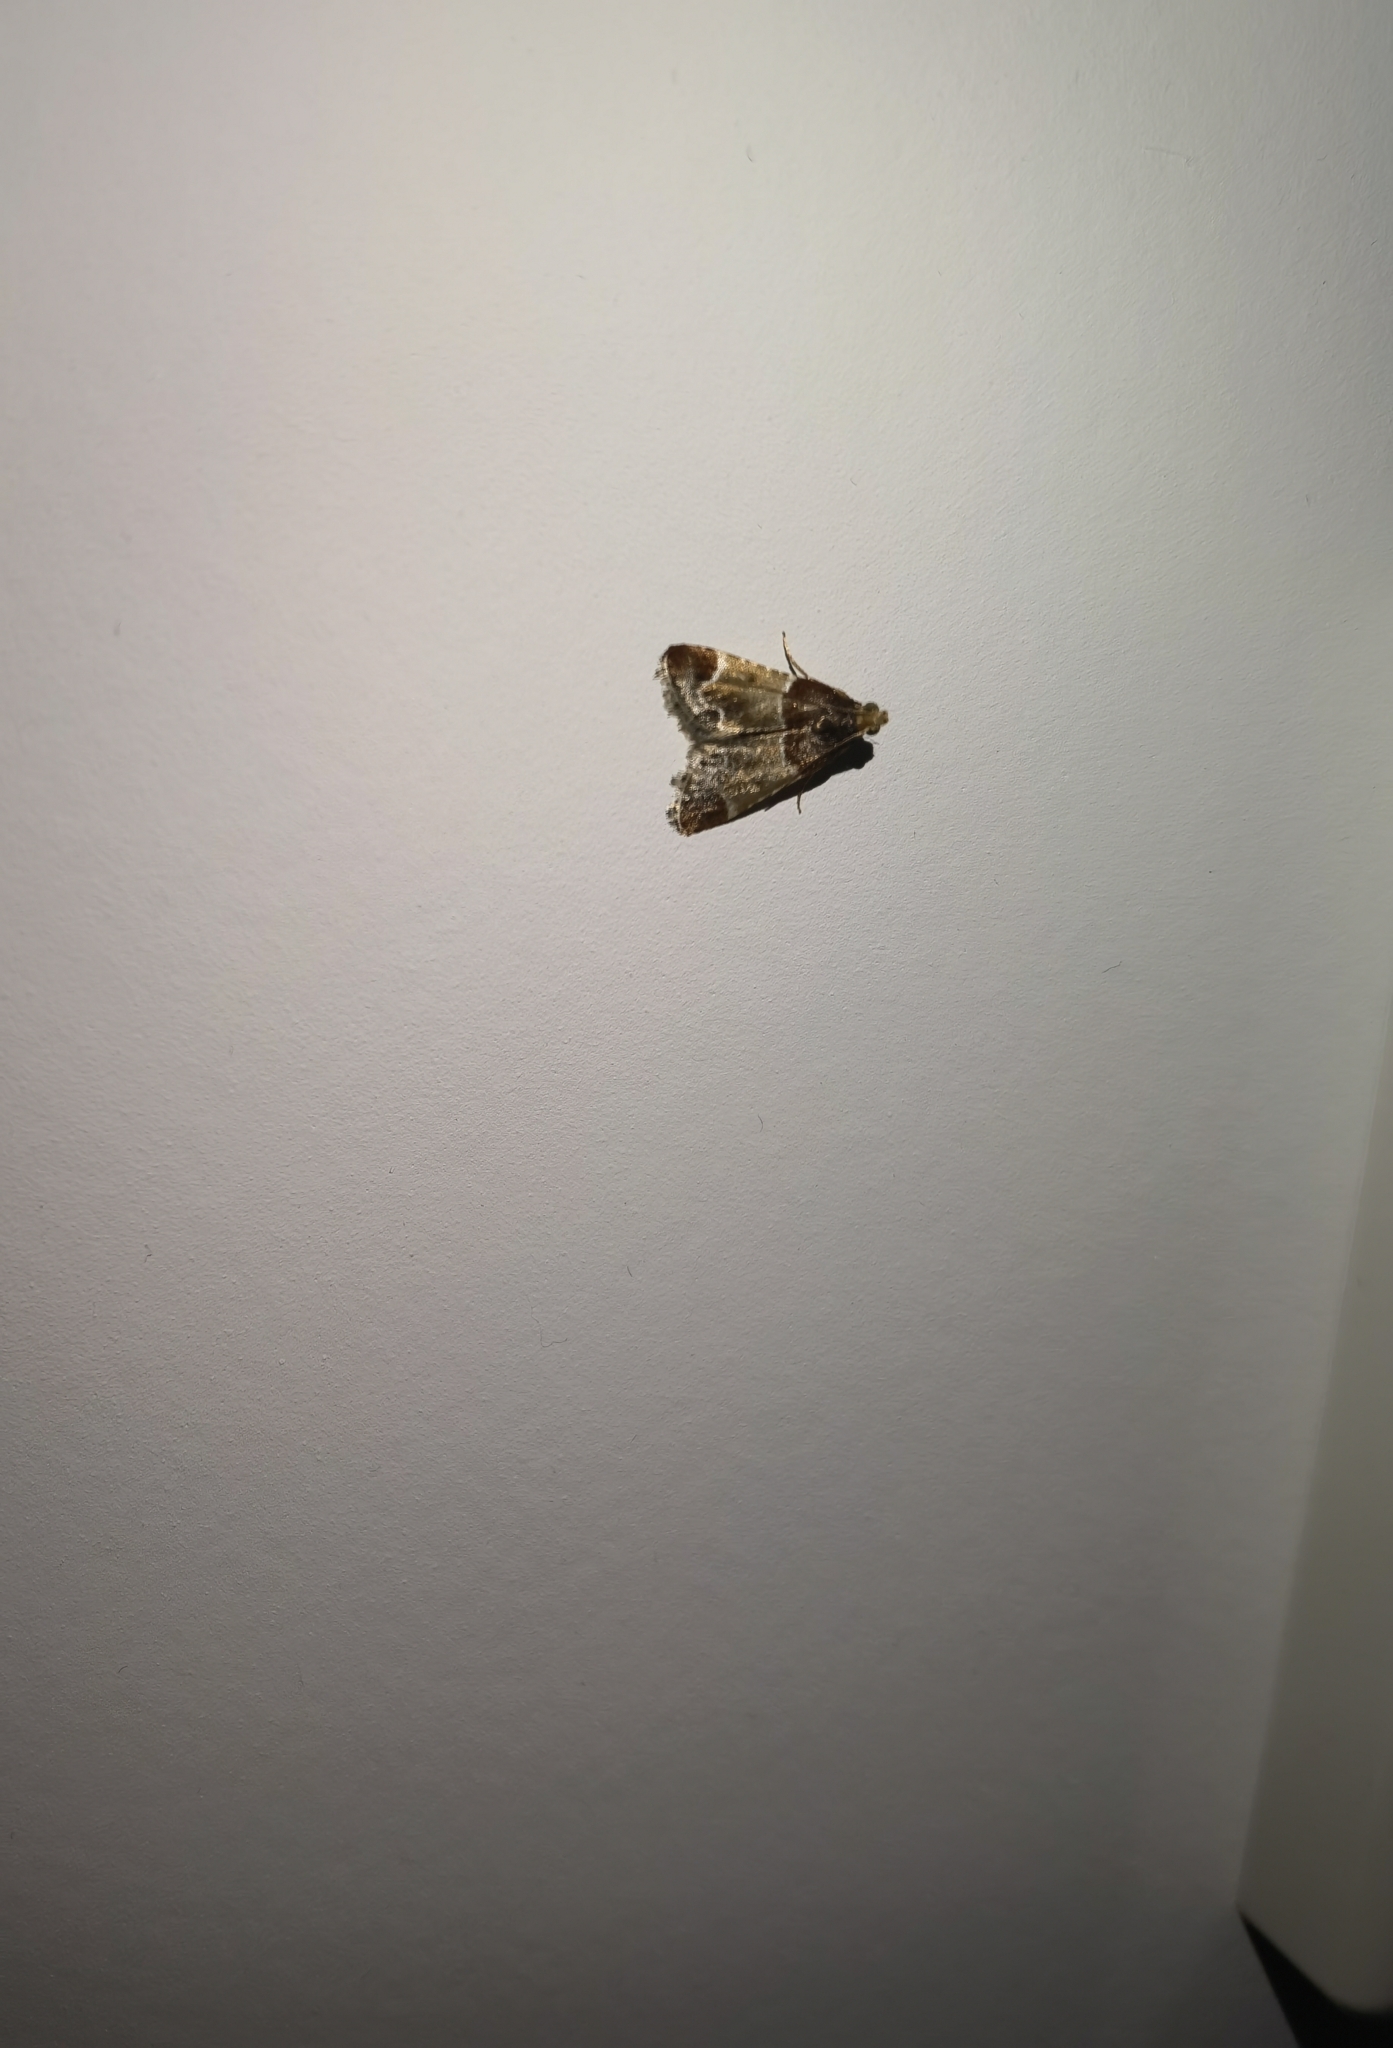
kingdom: Animalia
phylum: Arthropoda
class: Insecta
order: Lepidoptera
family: Pyralidae
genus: Pyralis
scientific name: Pyralis farinalis
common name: Meal moth
